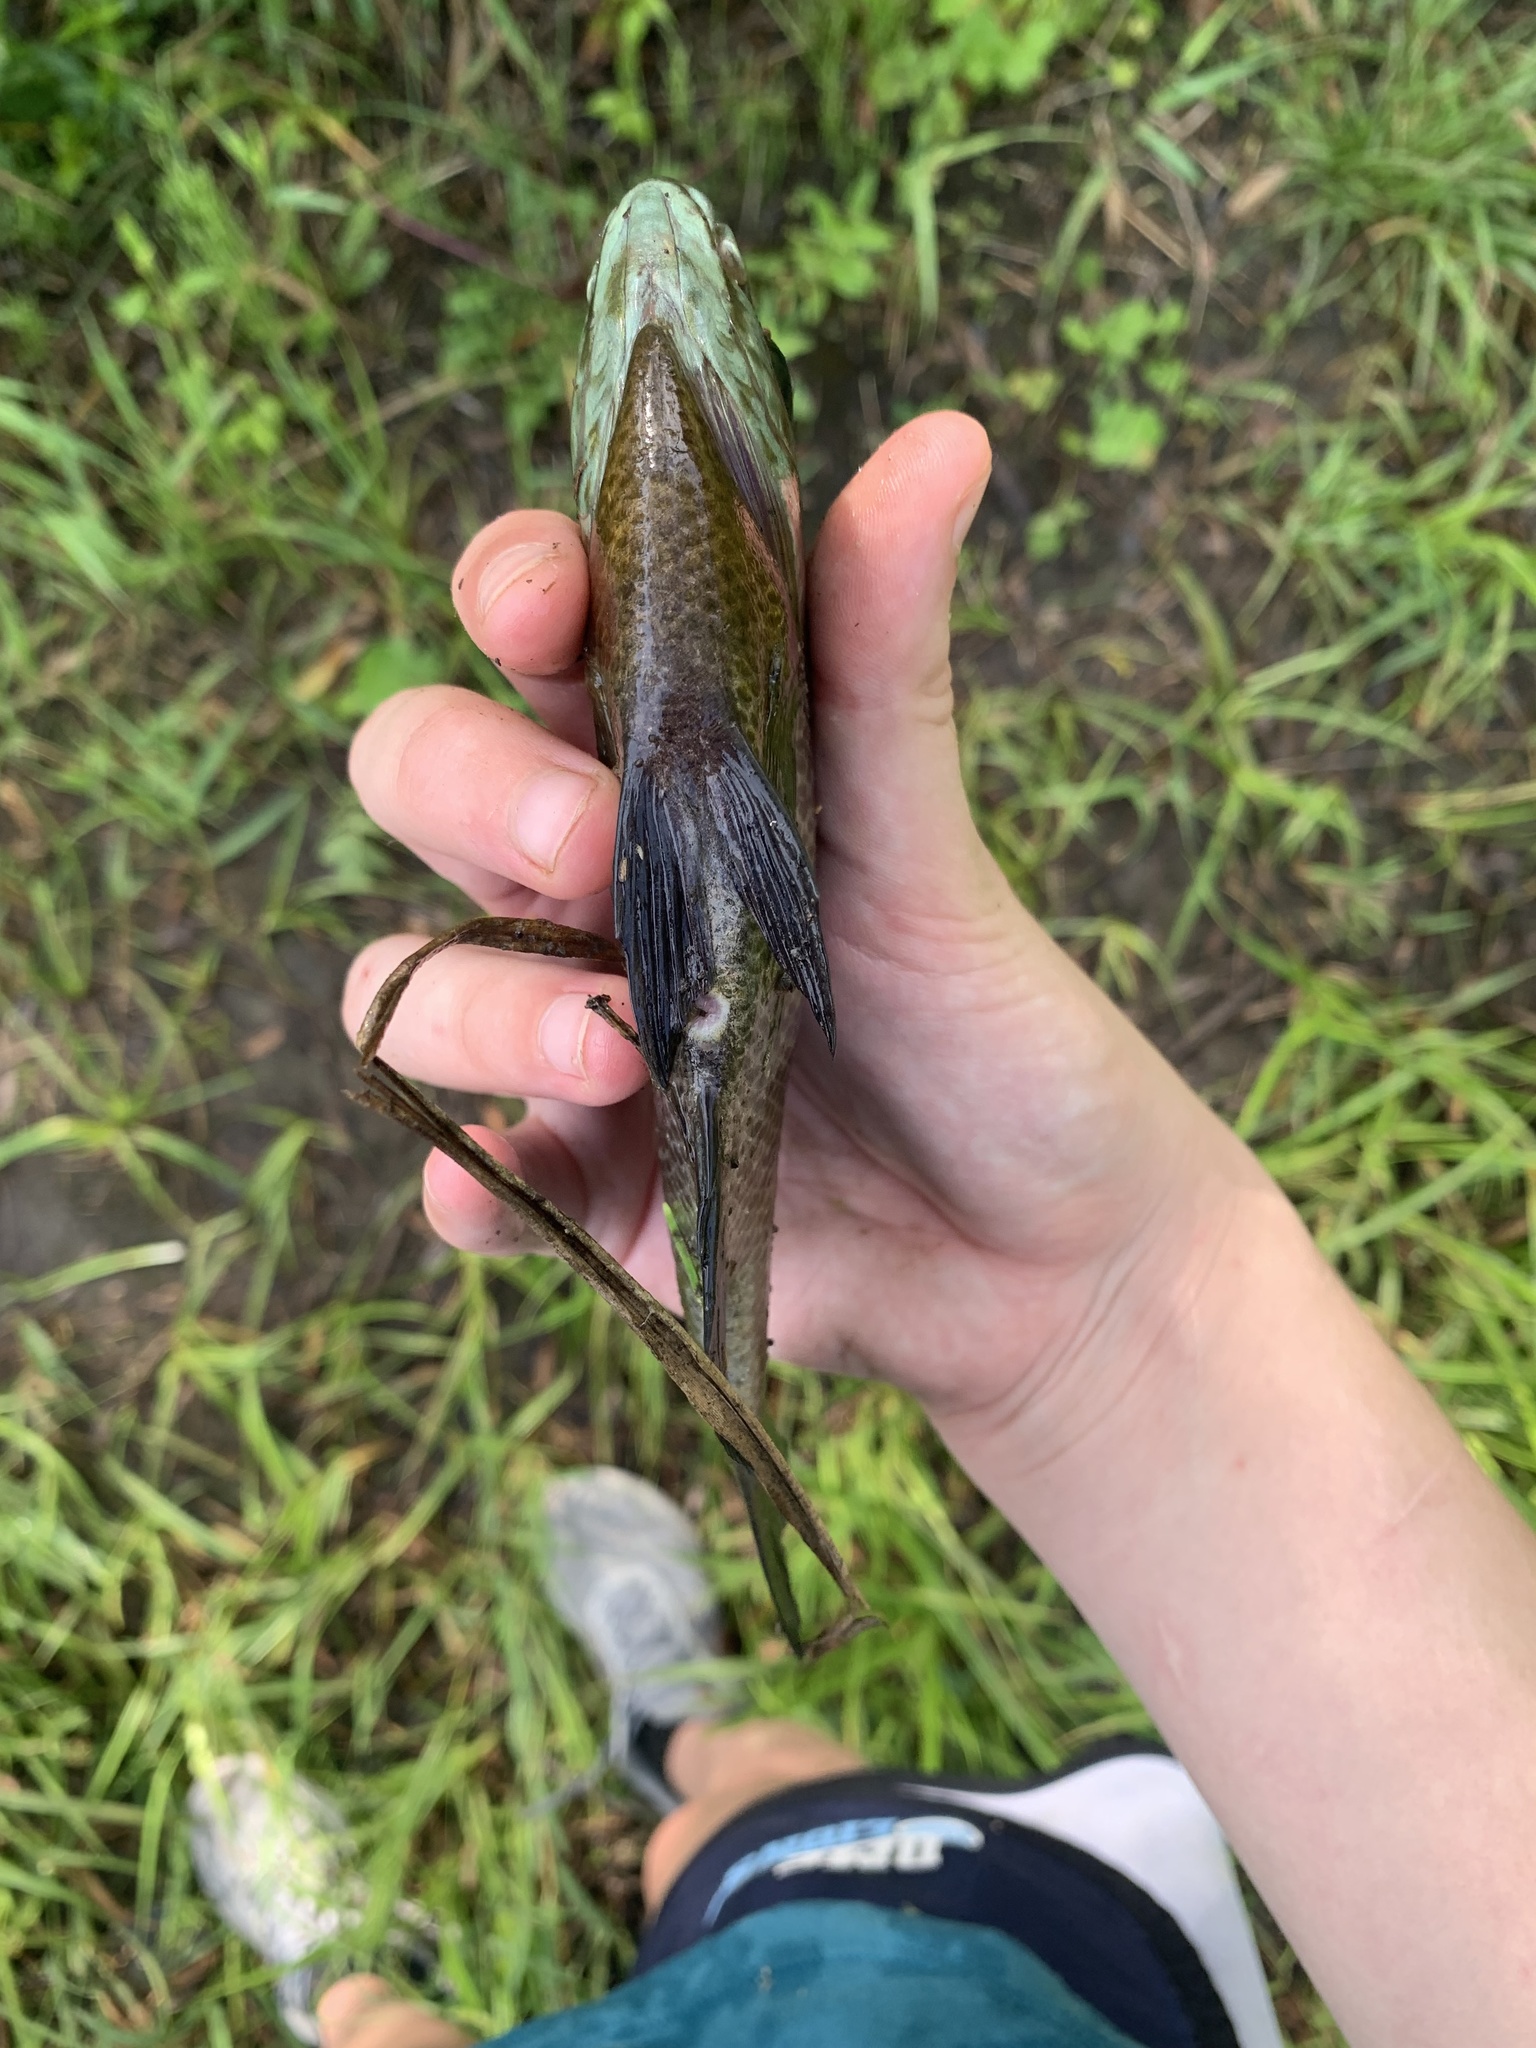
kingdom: Animalia
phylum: Chordata
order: Perciformes
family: Centrarchidae
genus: Lepomis
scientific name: Lepomis macrochirus
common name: Bluegill
